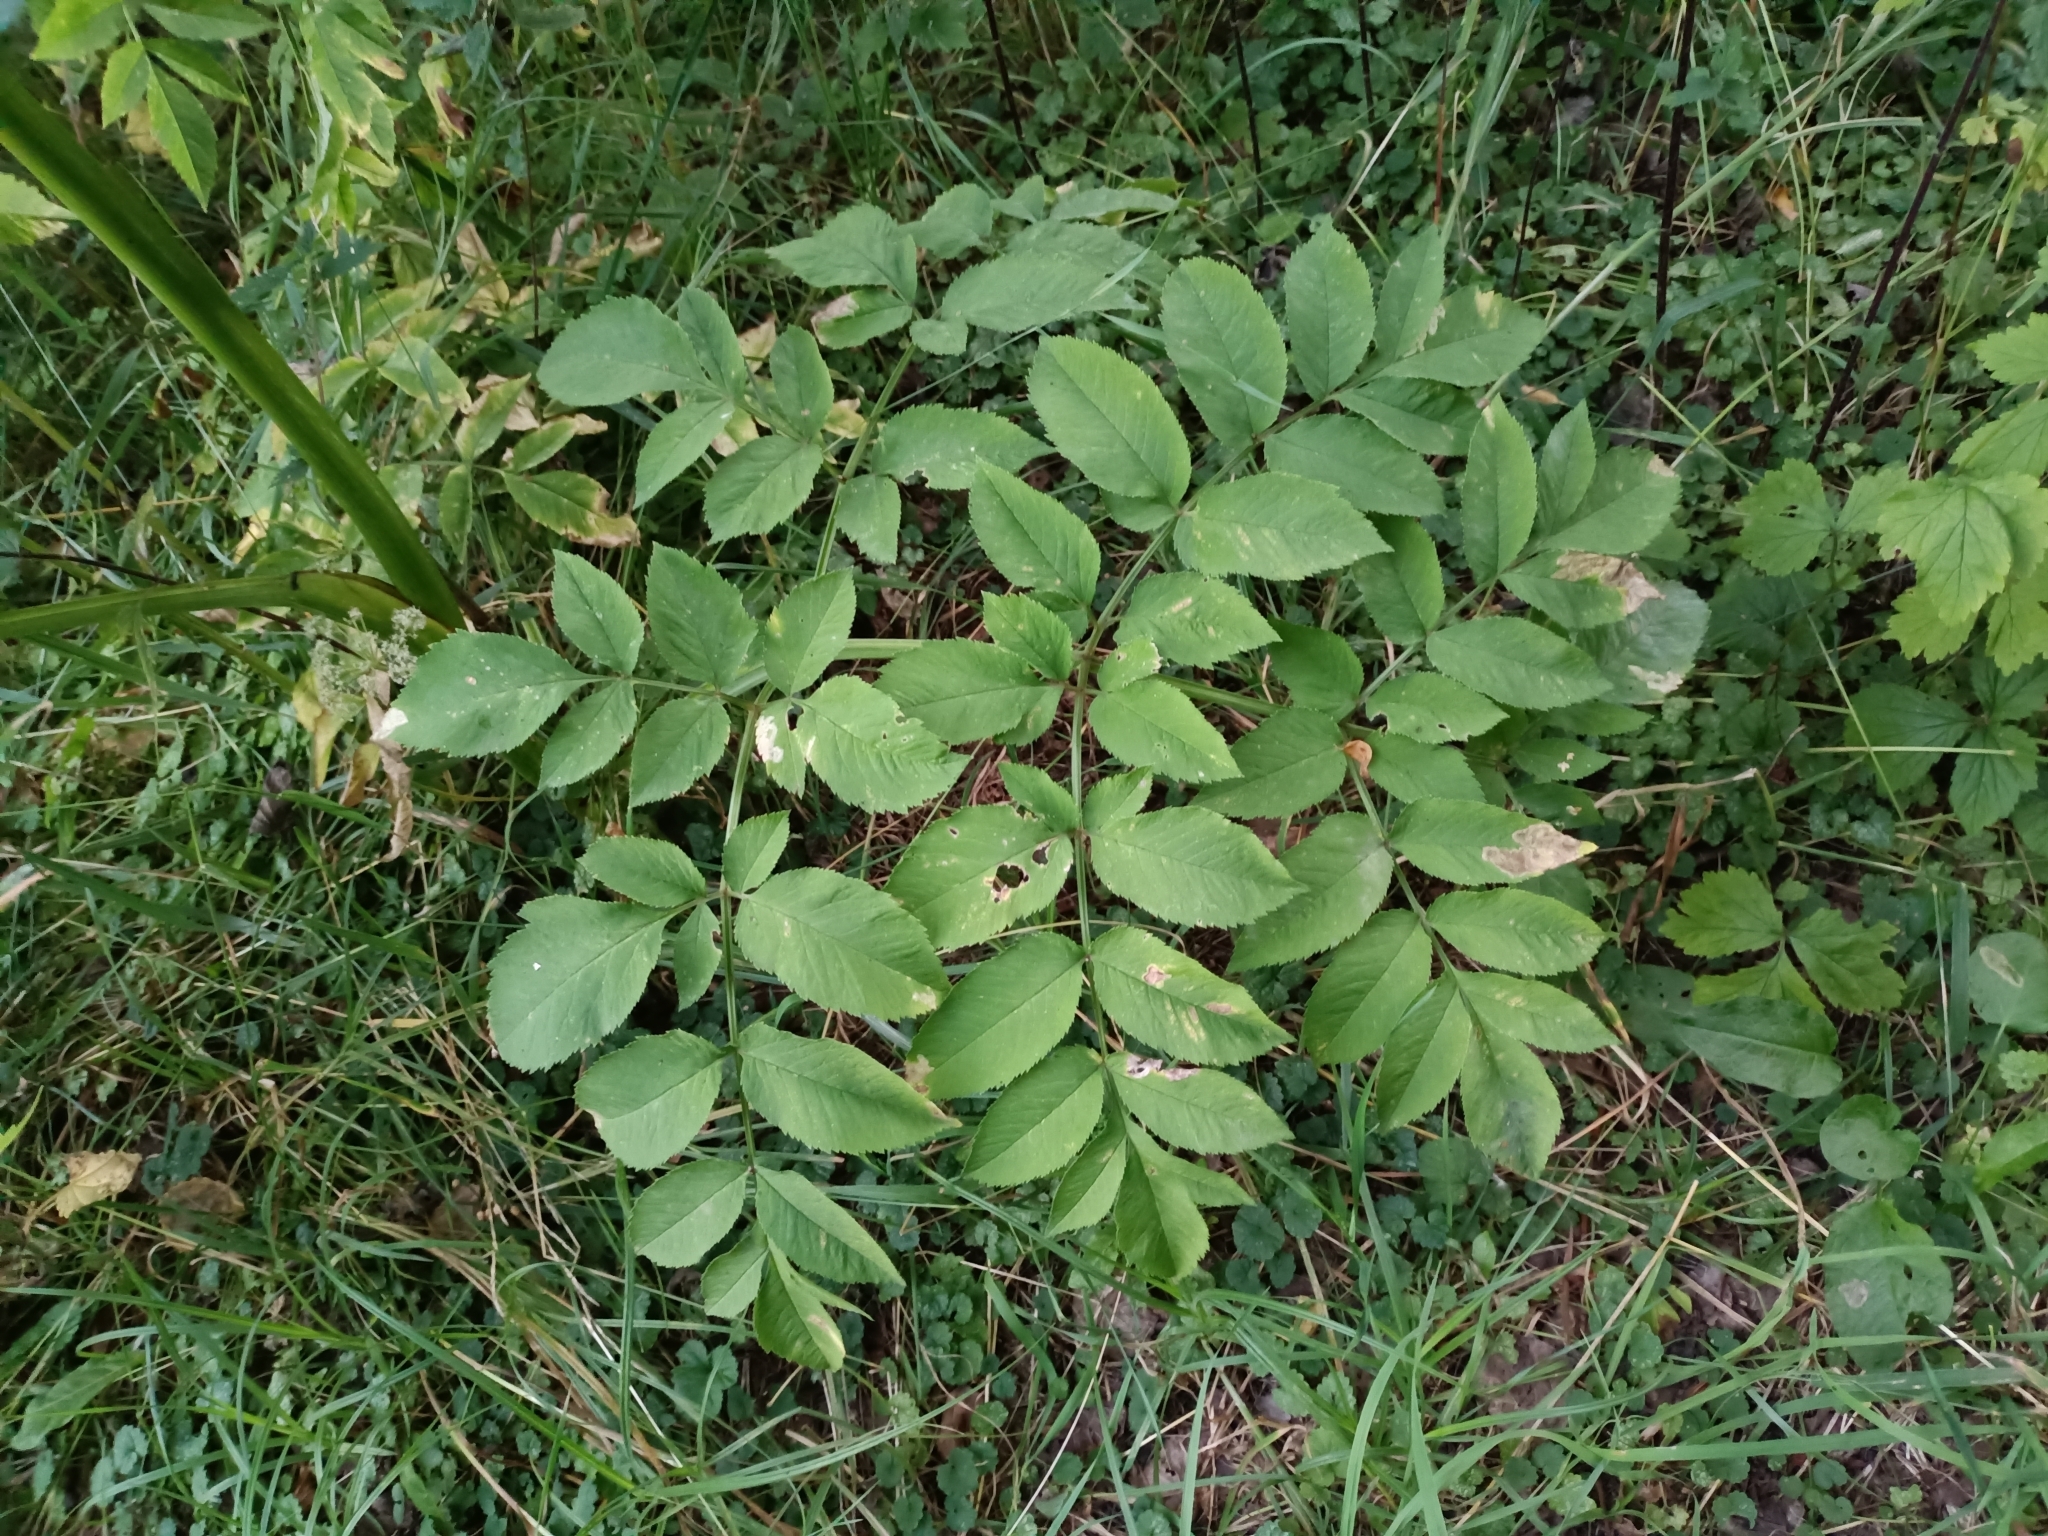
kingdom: Plantae
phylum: Tracheophyta
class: Magnoliopsida
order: Apiales
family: Apiaceae
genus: Angelica
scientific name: Angelica sylvestris
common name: Wild angelica
